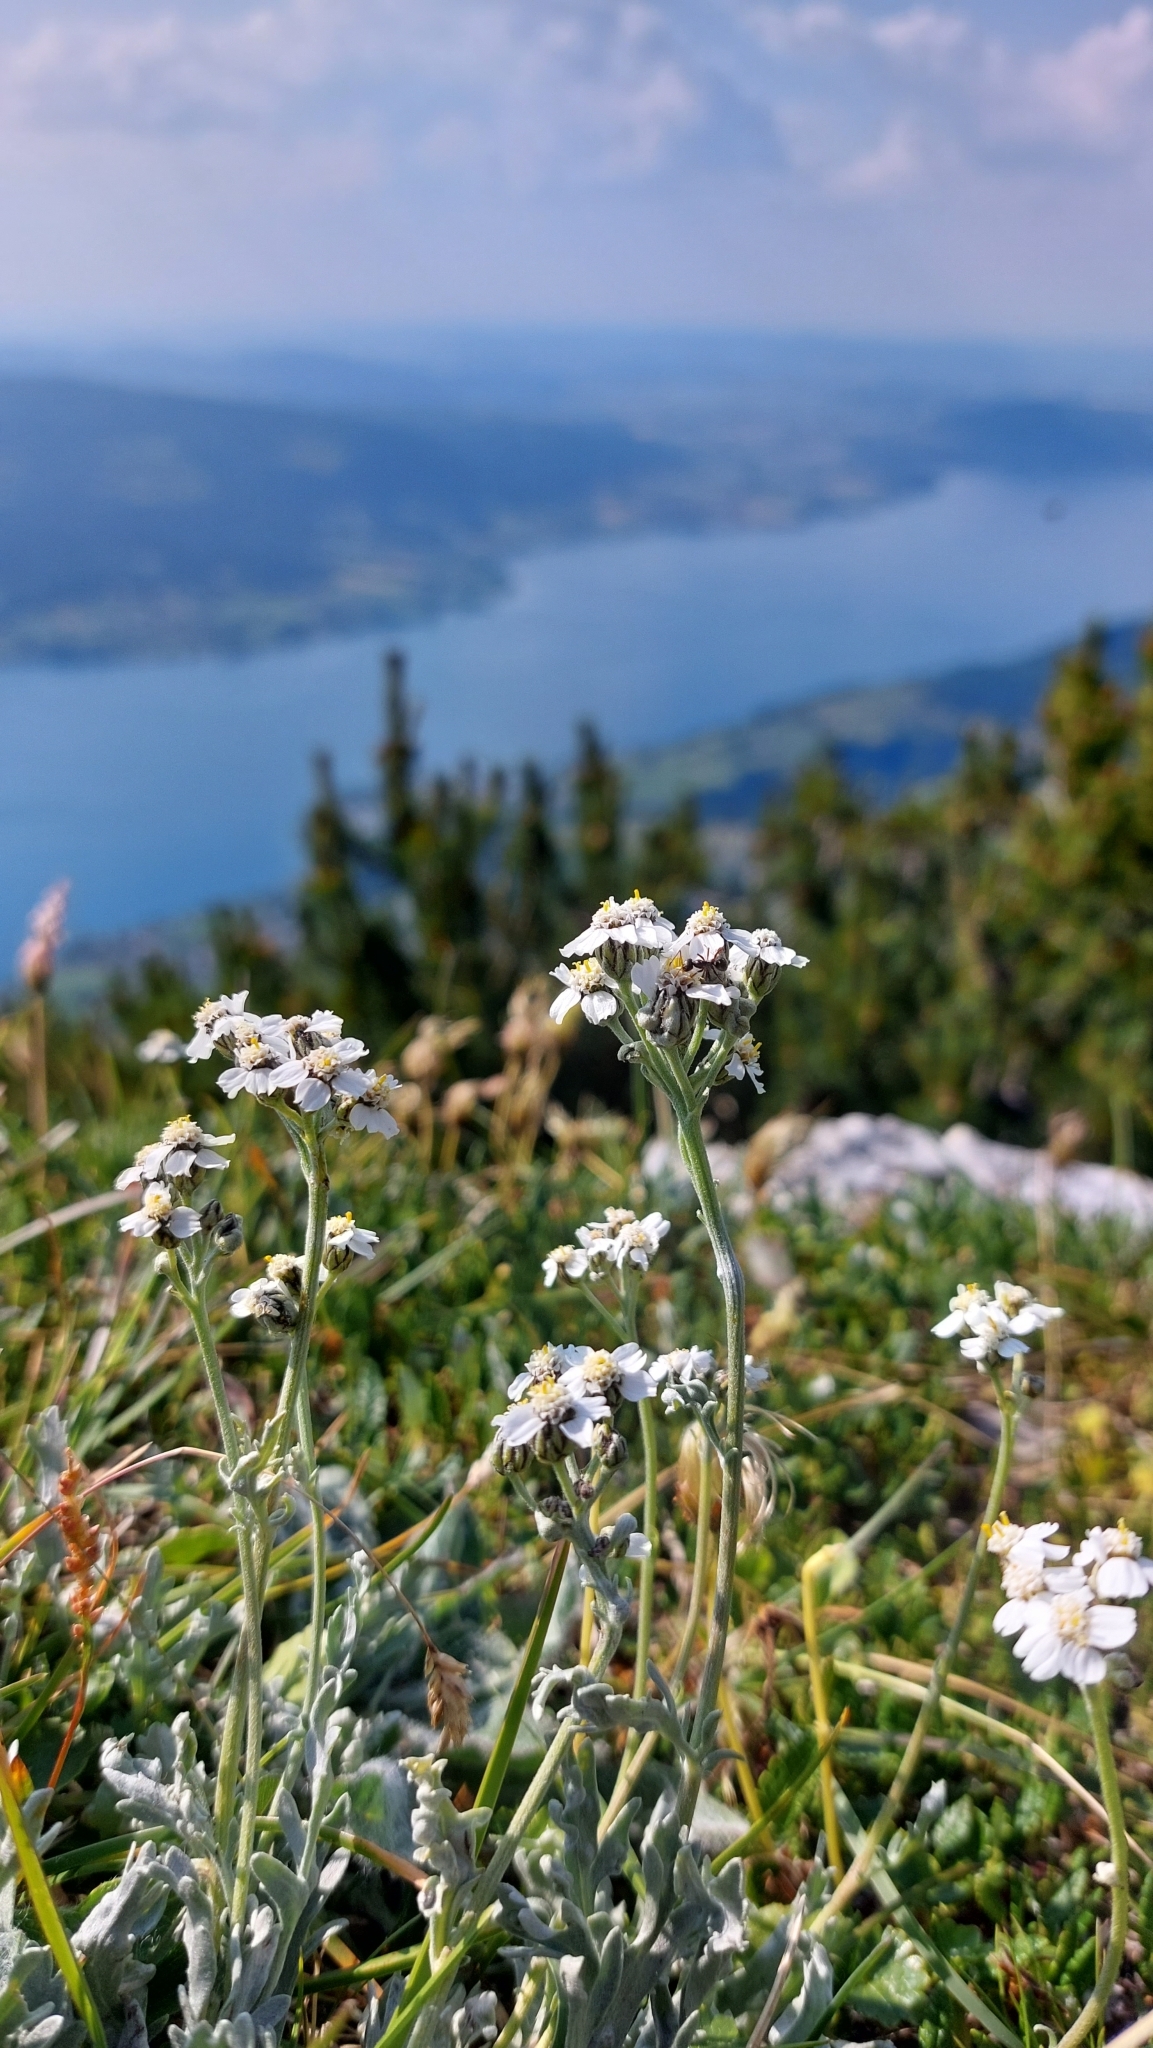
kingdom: Plantae
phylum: Tracheophyta
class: Magnoliopsida
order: Asterales
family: Asteraceae
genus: Achillea
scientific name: Achillea clavennae
